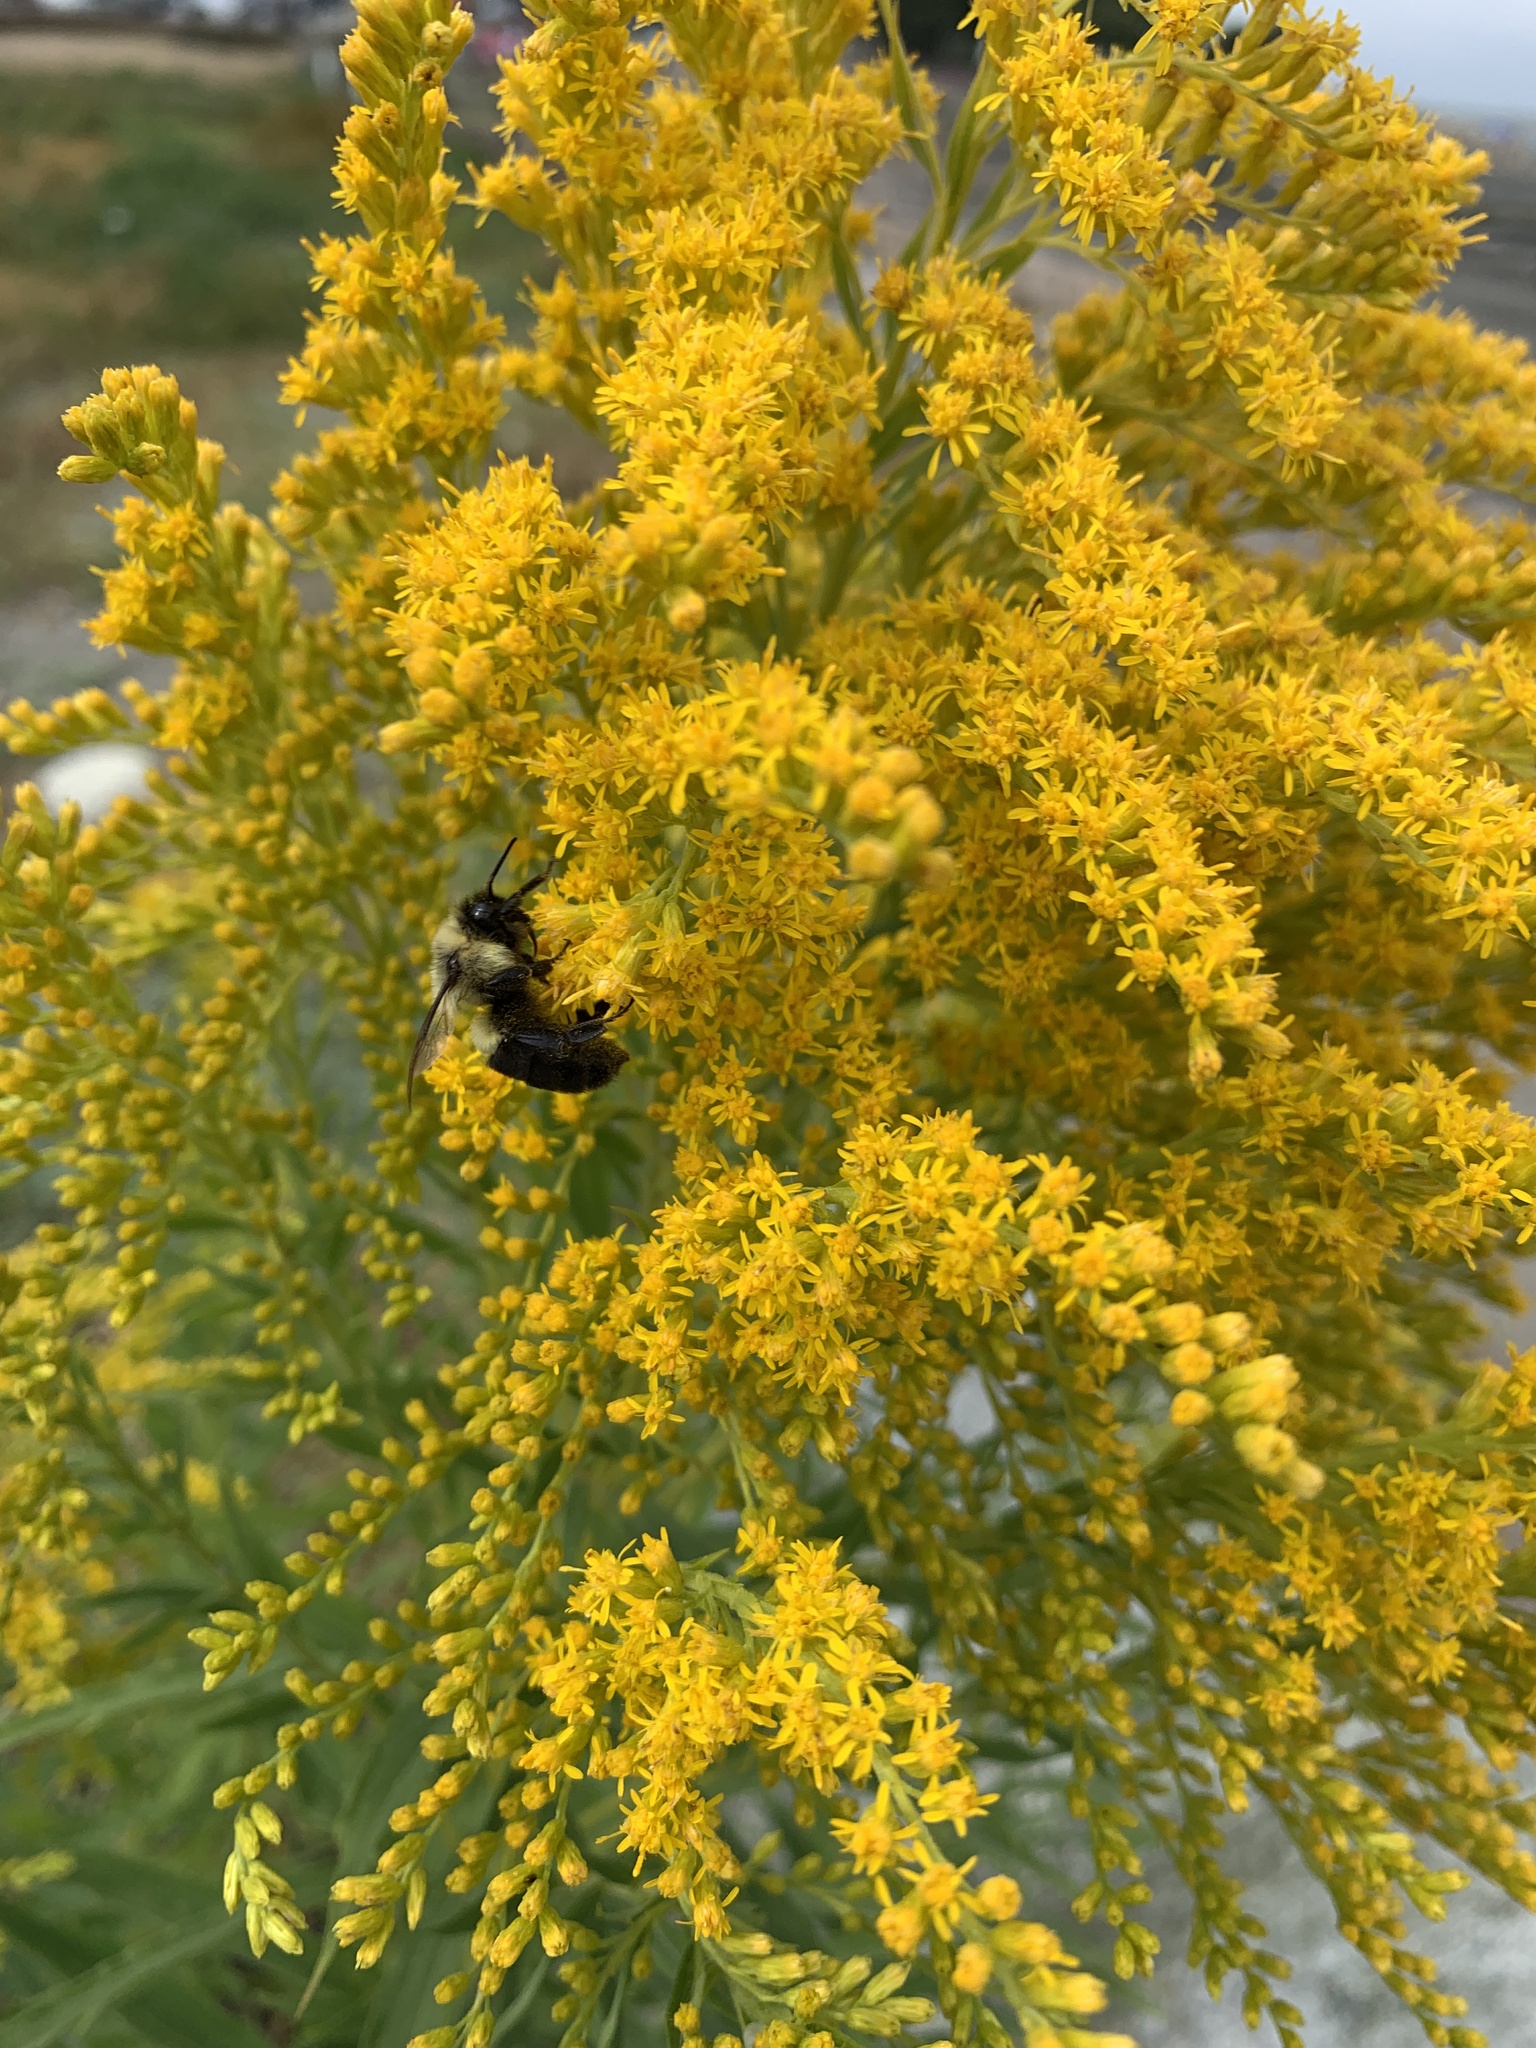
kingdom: Animalia
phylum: Arthropoda
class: Insecta
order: Hymenoptera
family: Apidae
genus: Bombus
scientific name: Bombus impatiens
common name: Common eastern bumble bee
